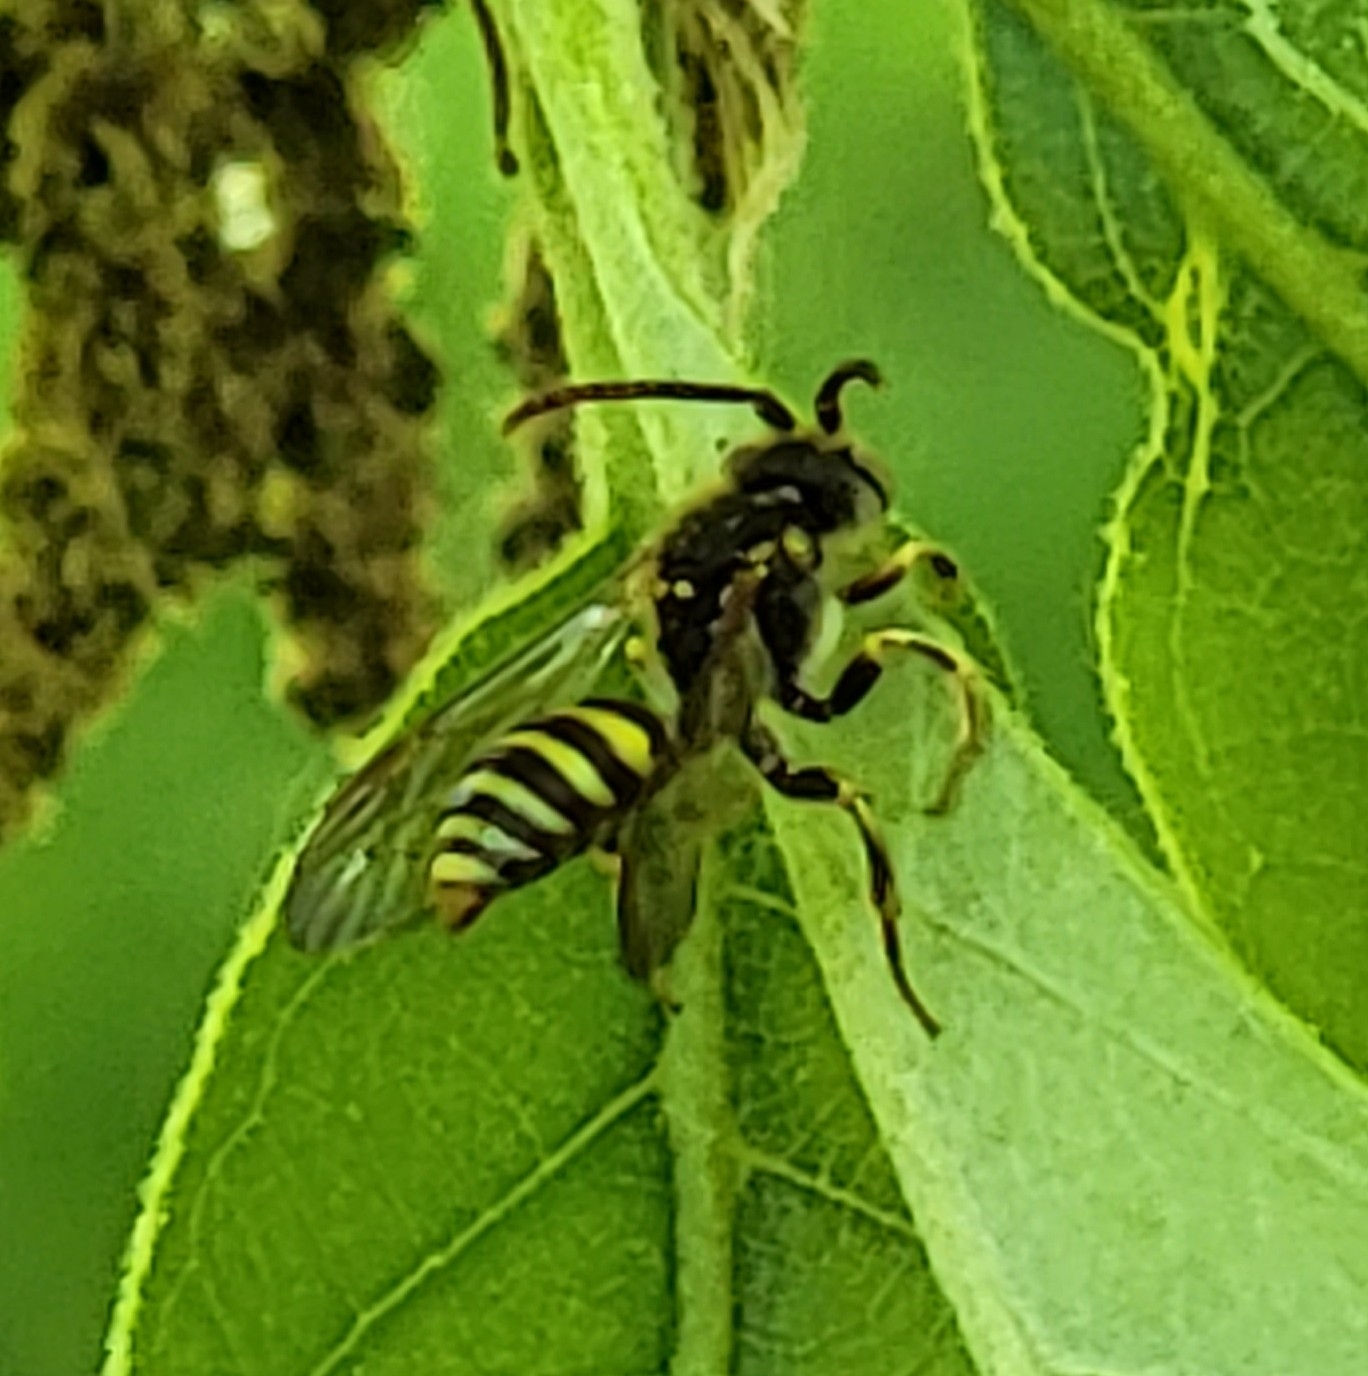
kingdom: Animalia
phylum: Arthropoda
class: Insecta
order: Hymenoptera
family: Apidae
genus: Nomada
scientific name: Nomada
